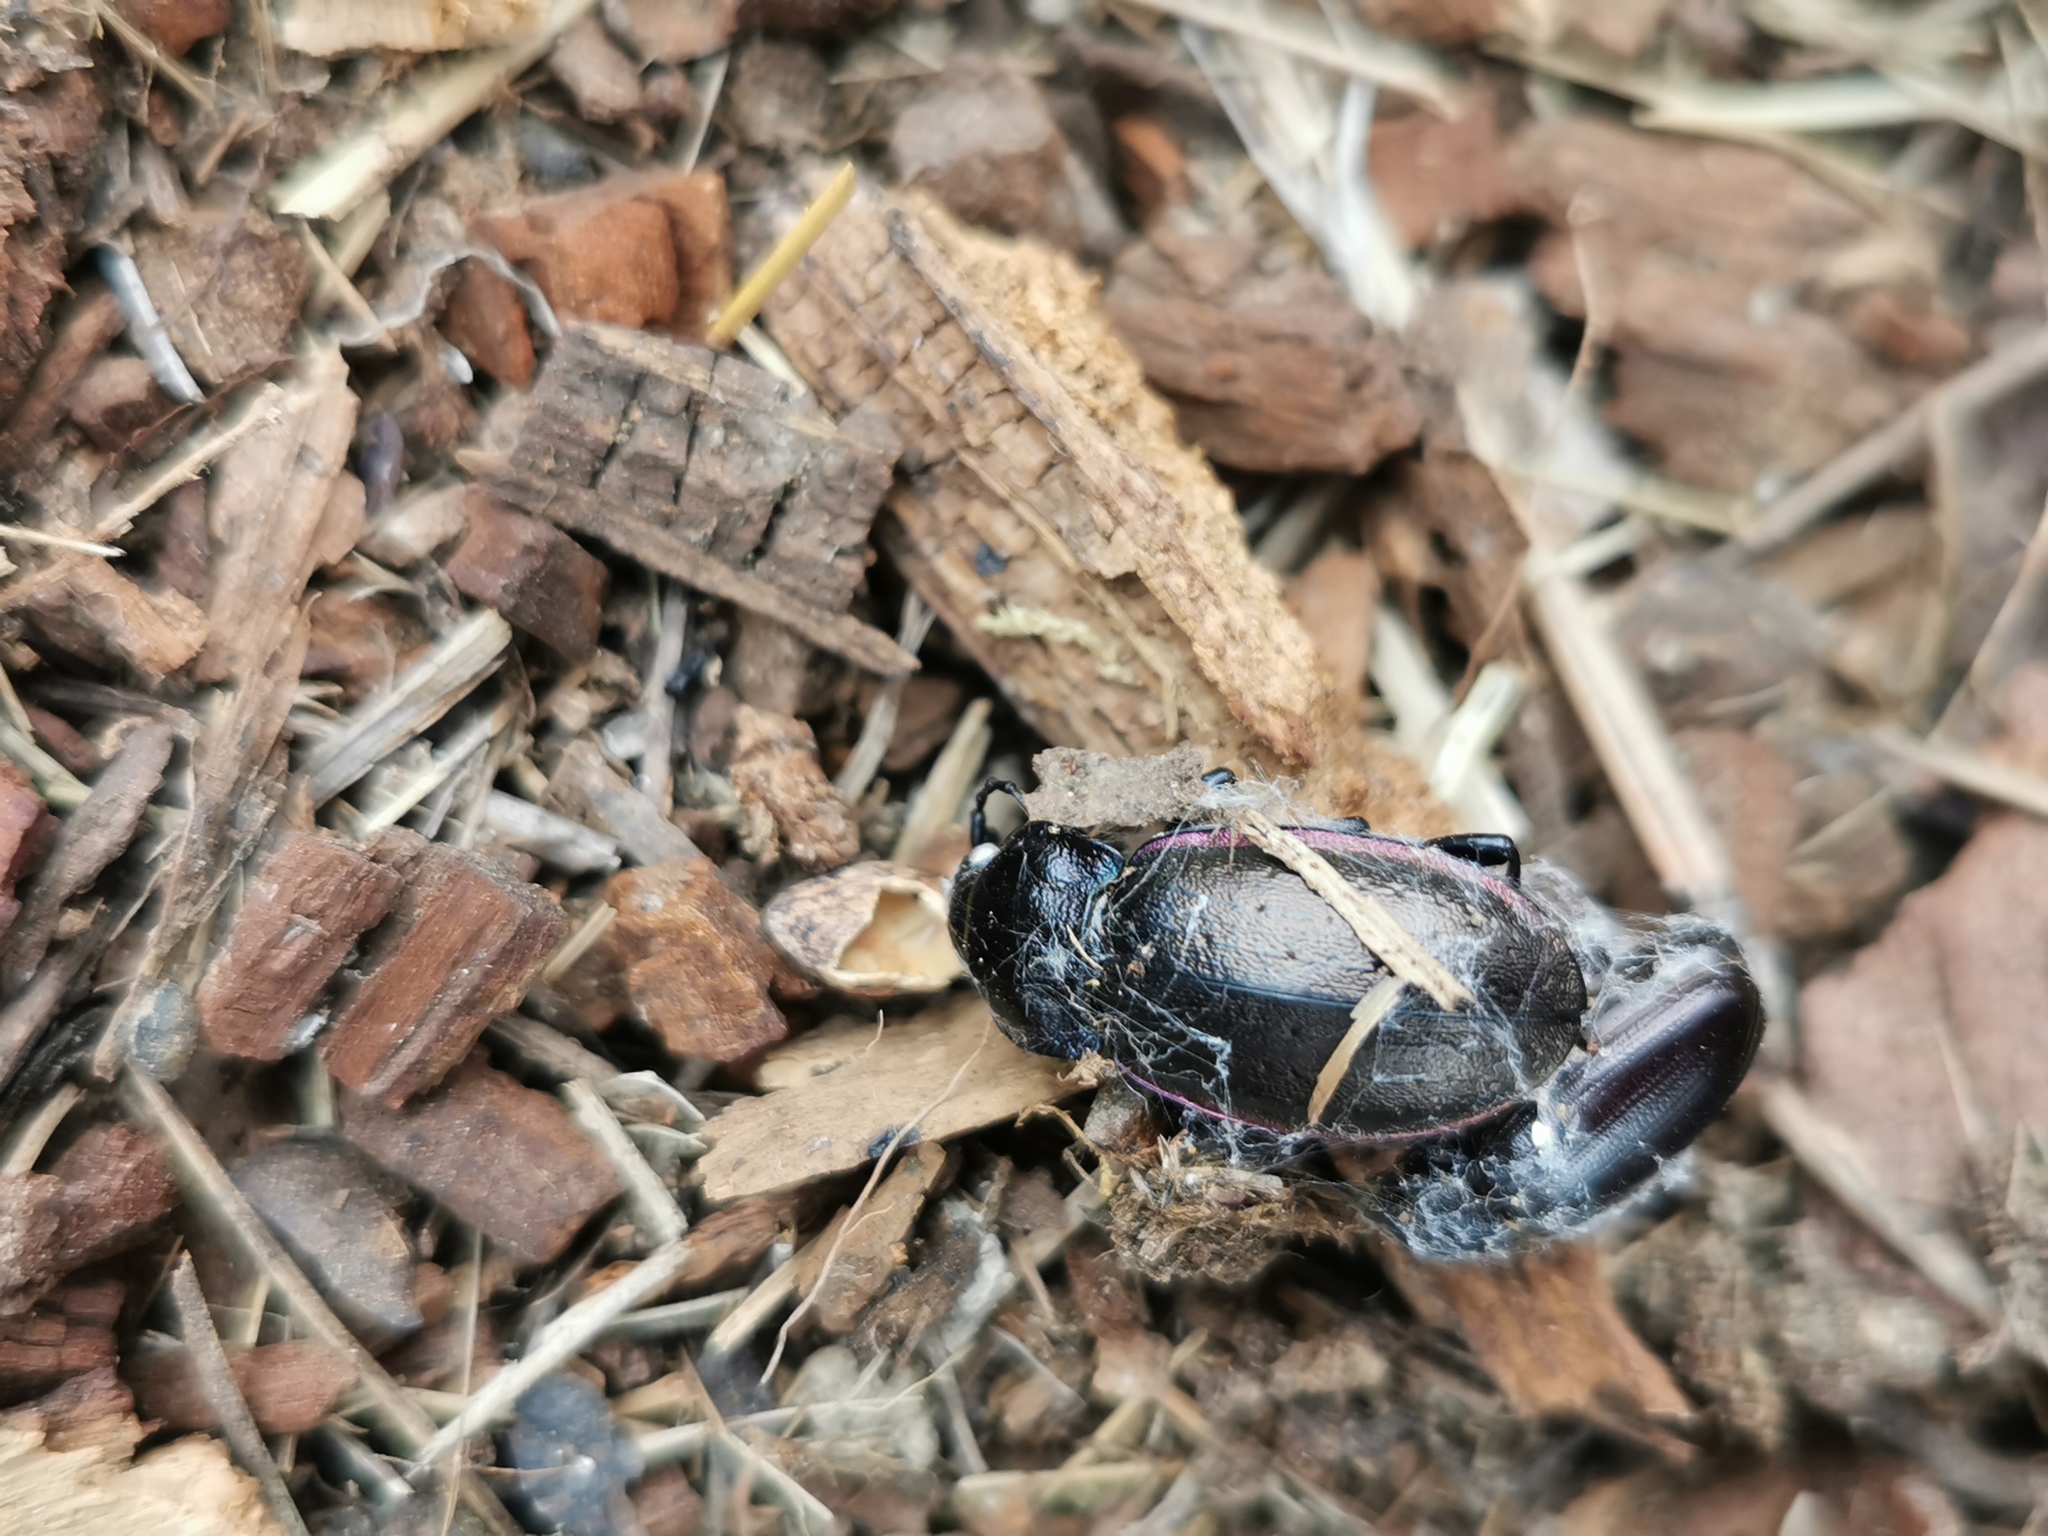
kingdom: Animalia
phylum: Arthropoda
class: Insecta
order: Coleoptera
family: Carabidae
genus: Carabus
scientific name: Carabus nemoralis
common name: European ground beetle
